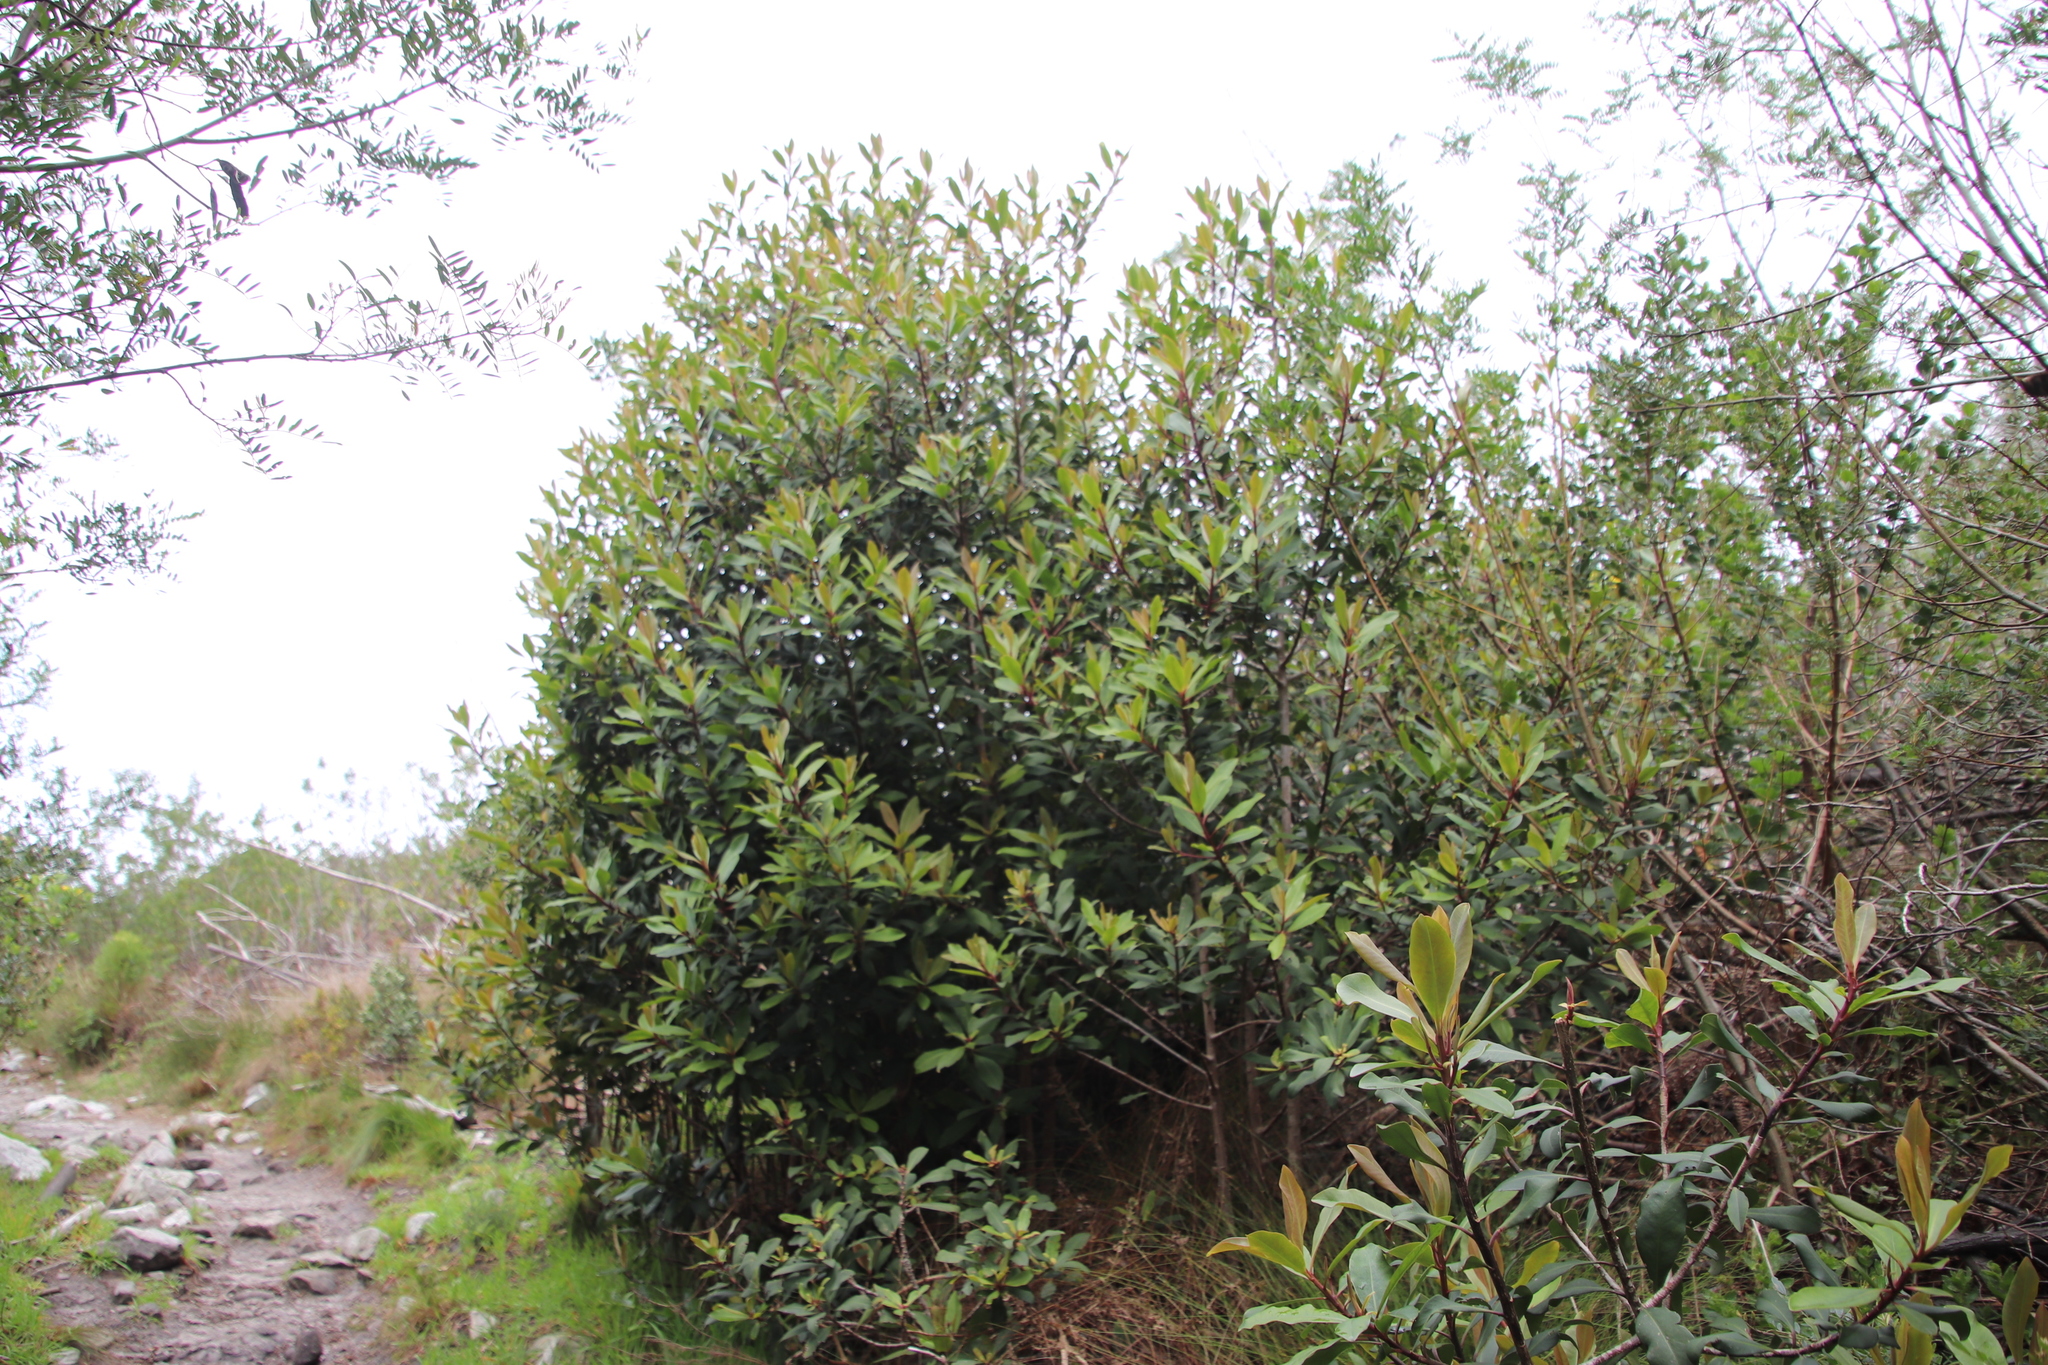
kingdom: Plantae
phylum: Tracheophyta
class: Magnoliopsida
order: Ericales
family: Primulaceae
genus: Myrsine
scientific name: Myrsine melanophloeos
